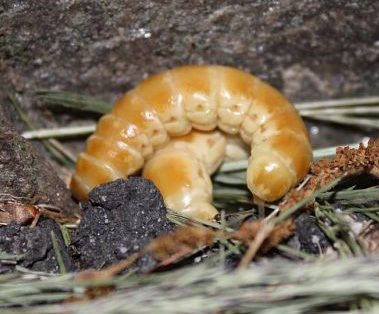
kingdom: Animalia
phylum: Arthropoda
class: Insecta
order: Coleoptera
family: Phengodidae
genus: Phengodes
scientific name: Phengodes
